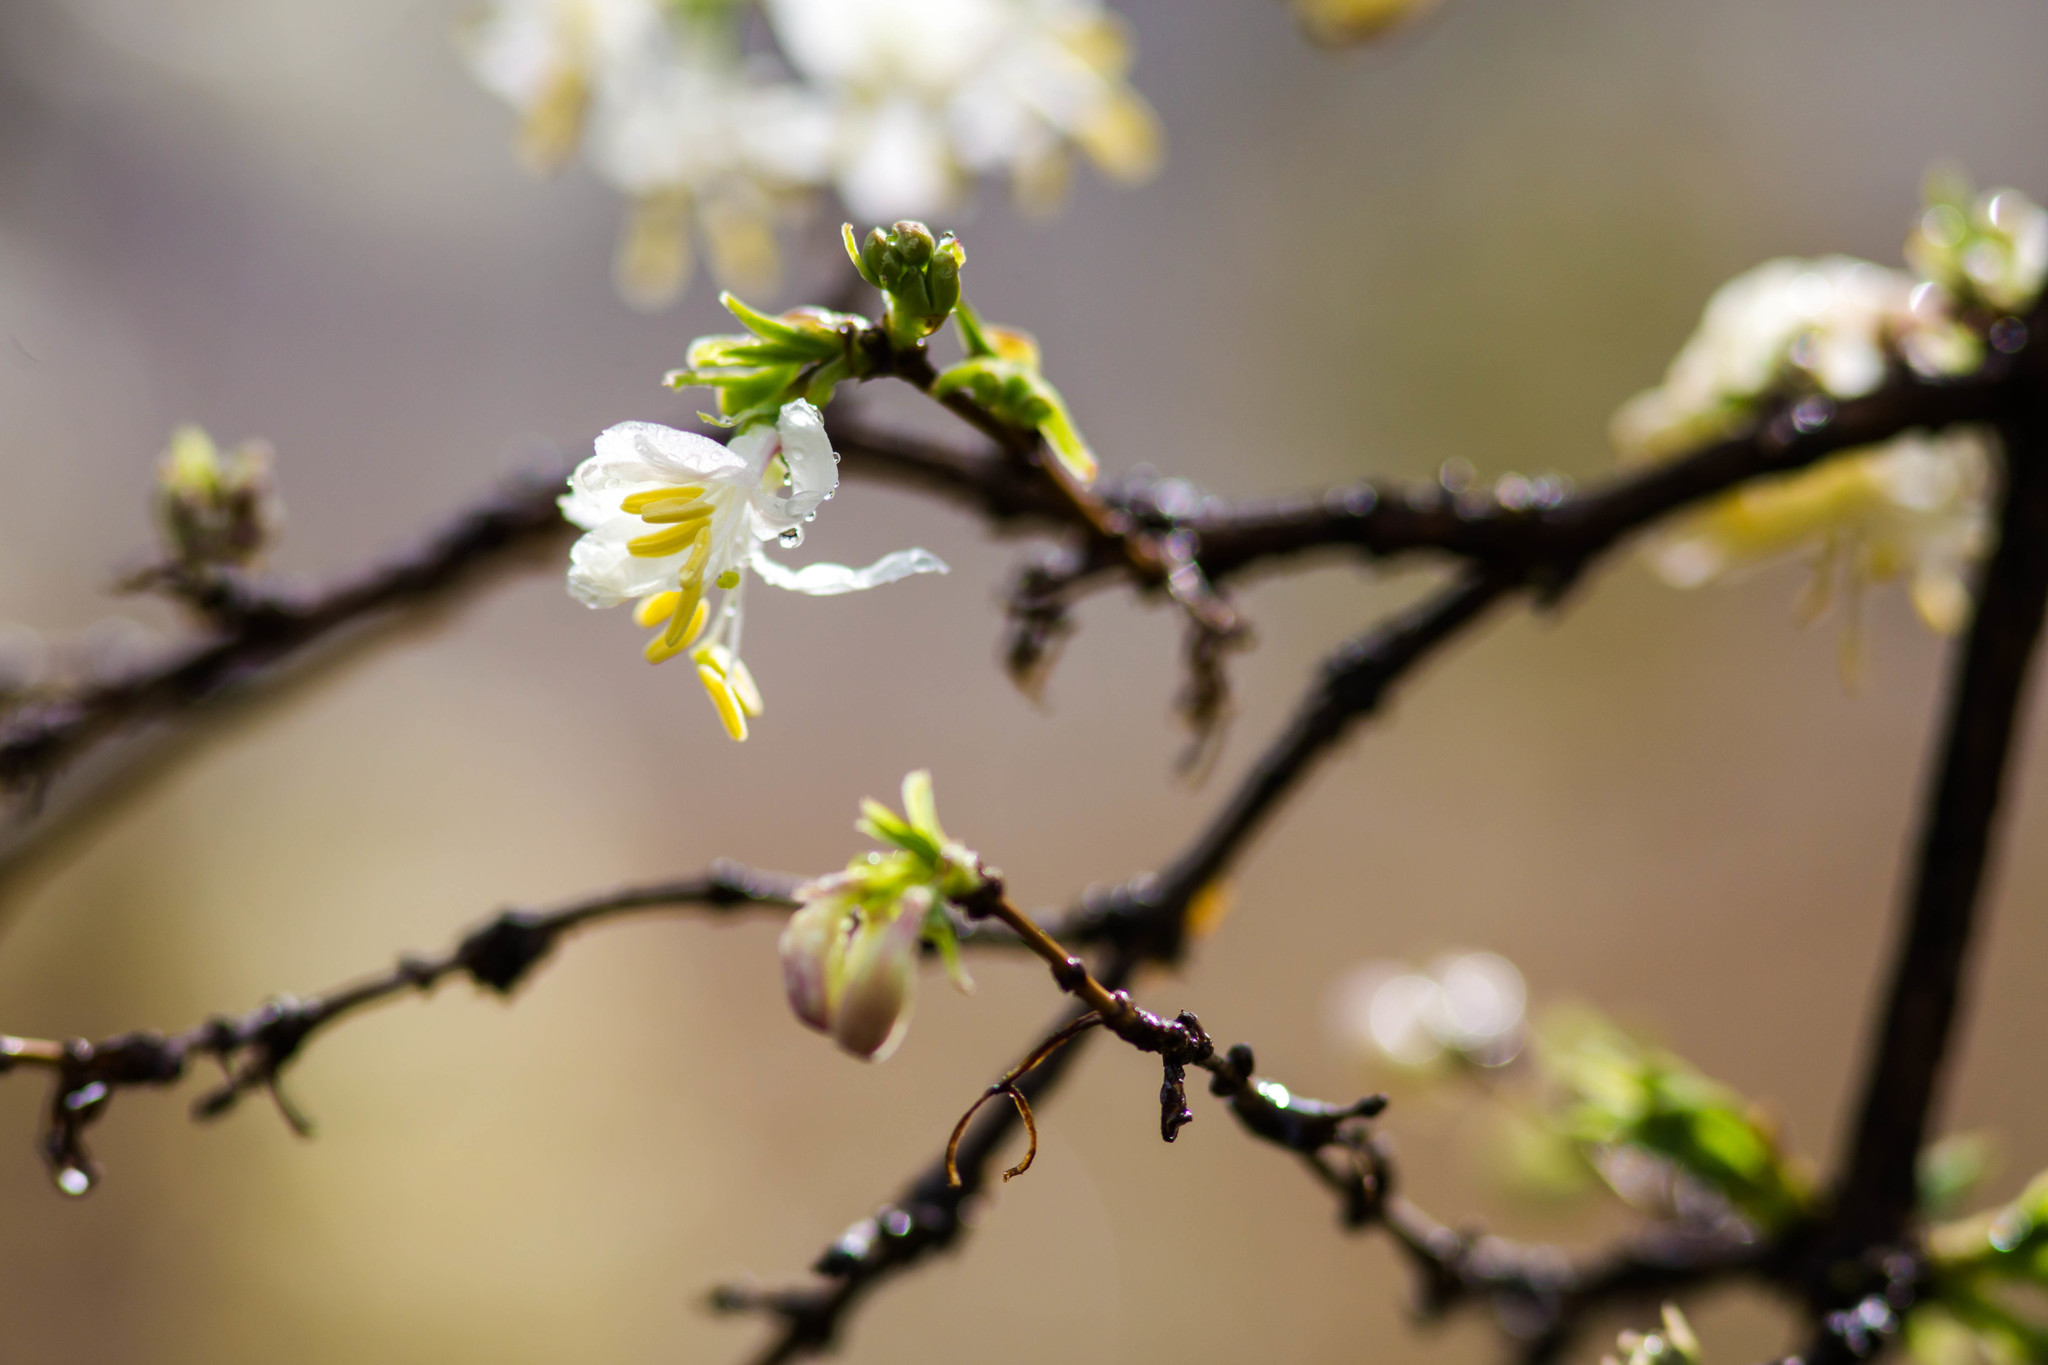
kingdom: Plantae
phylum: Tracheophyta
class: Magnoliopsida
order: Dipsacales
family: Caprifoliaceae
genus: Lonicera
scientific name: Lonicera fragrantissima
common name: Fragrant honeysuckle
